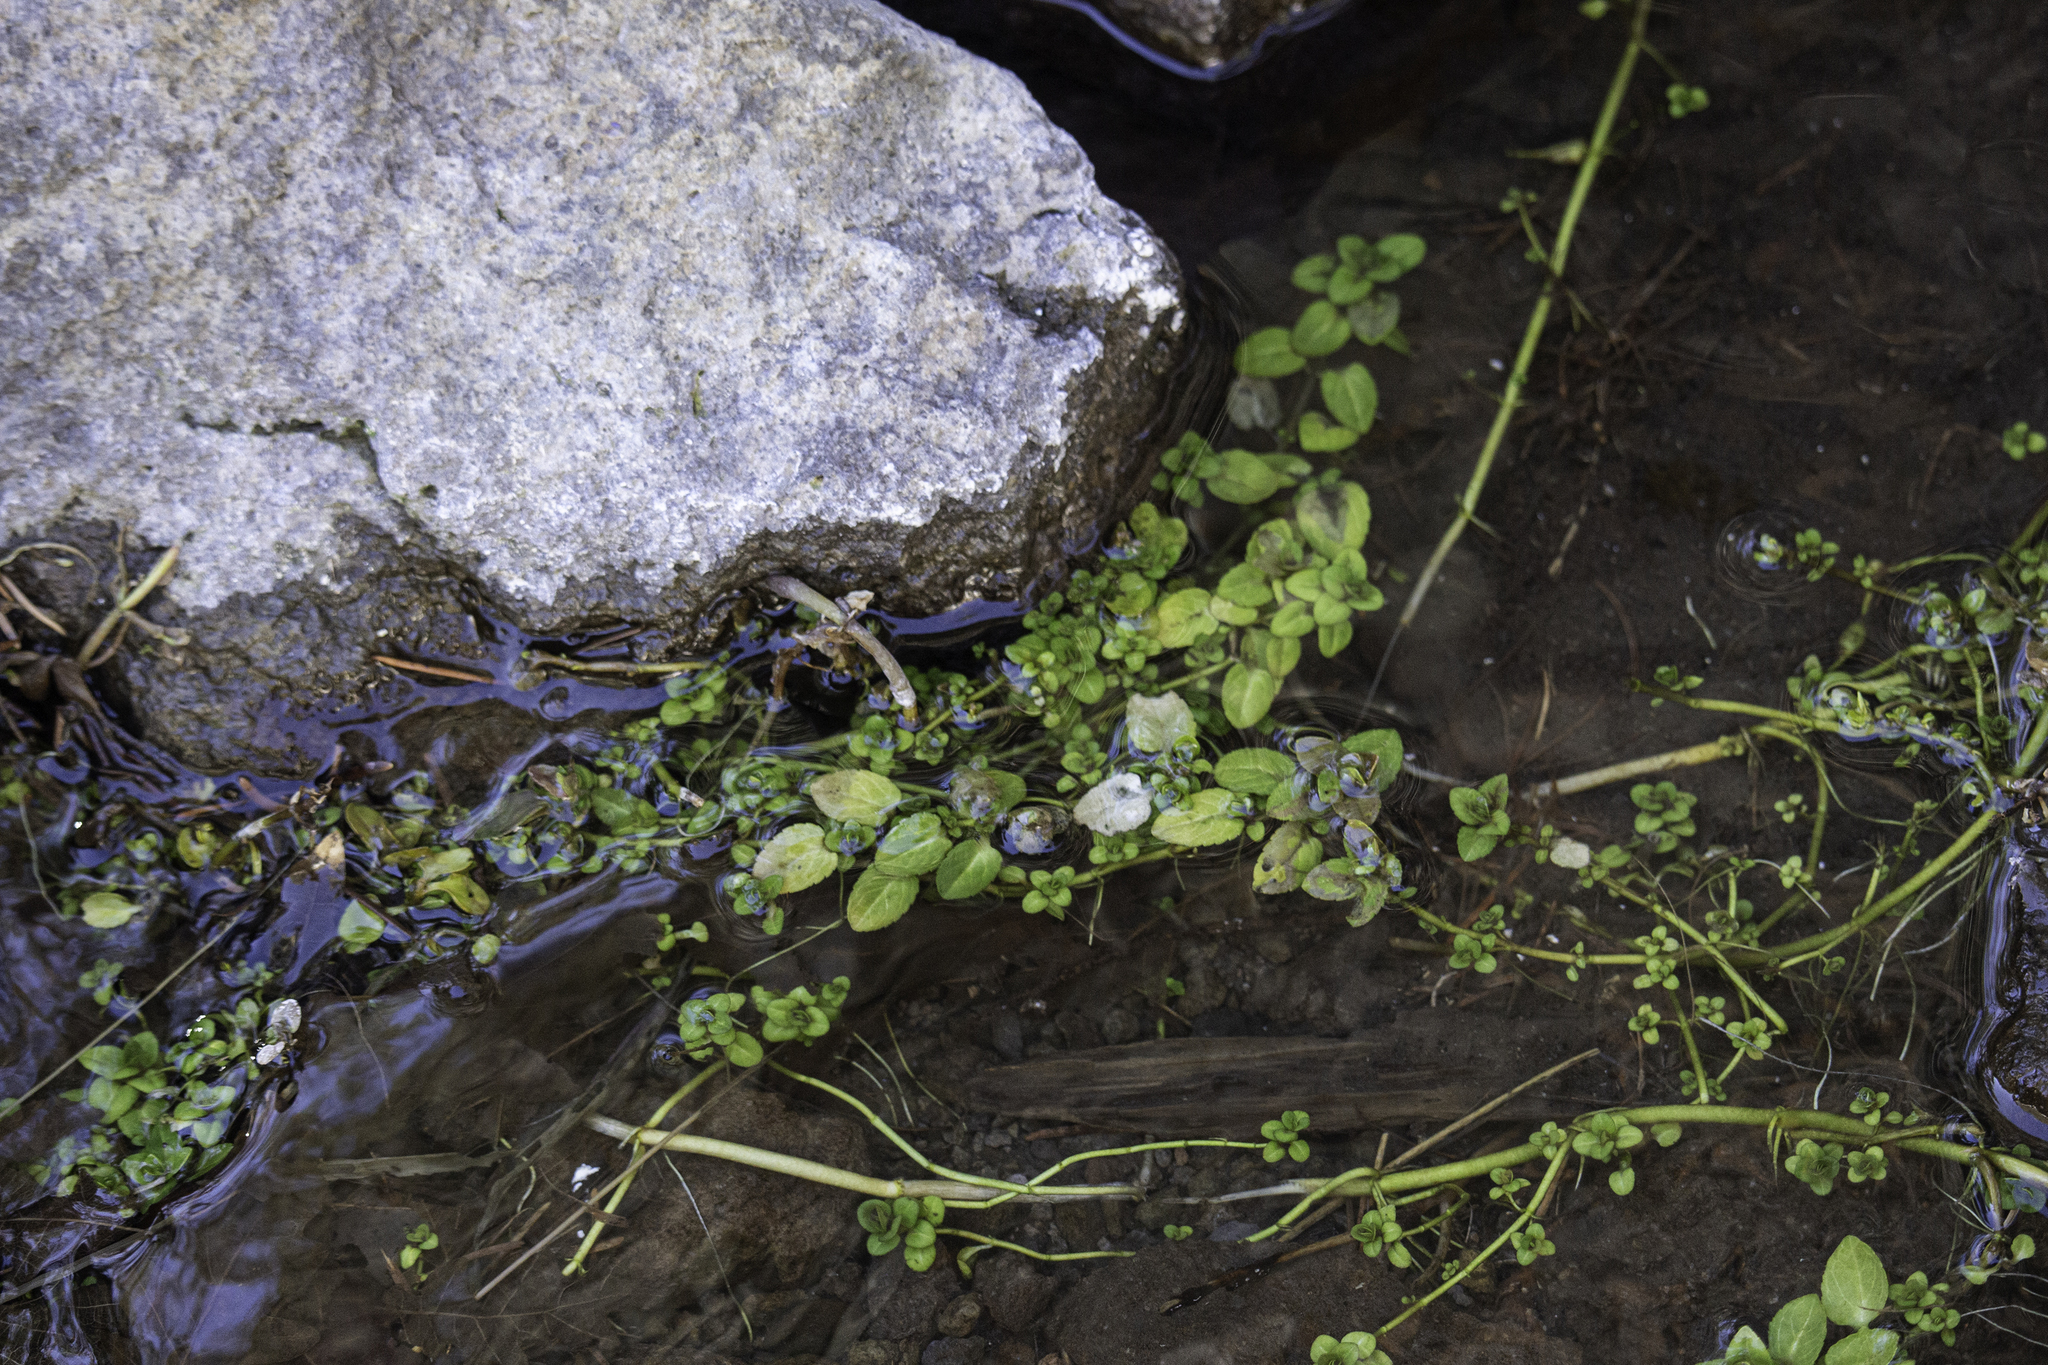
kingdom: Plantae
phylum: Tracheophyta
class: Magnoliopsida
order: Lamiales
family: Plantaginaceae
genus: Veronica
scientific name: Veronica americana
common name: American brooklime
